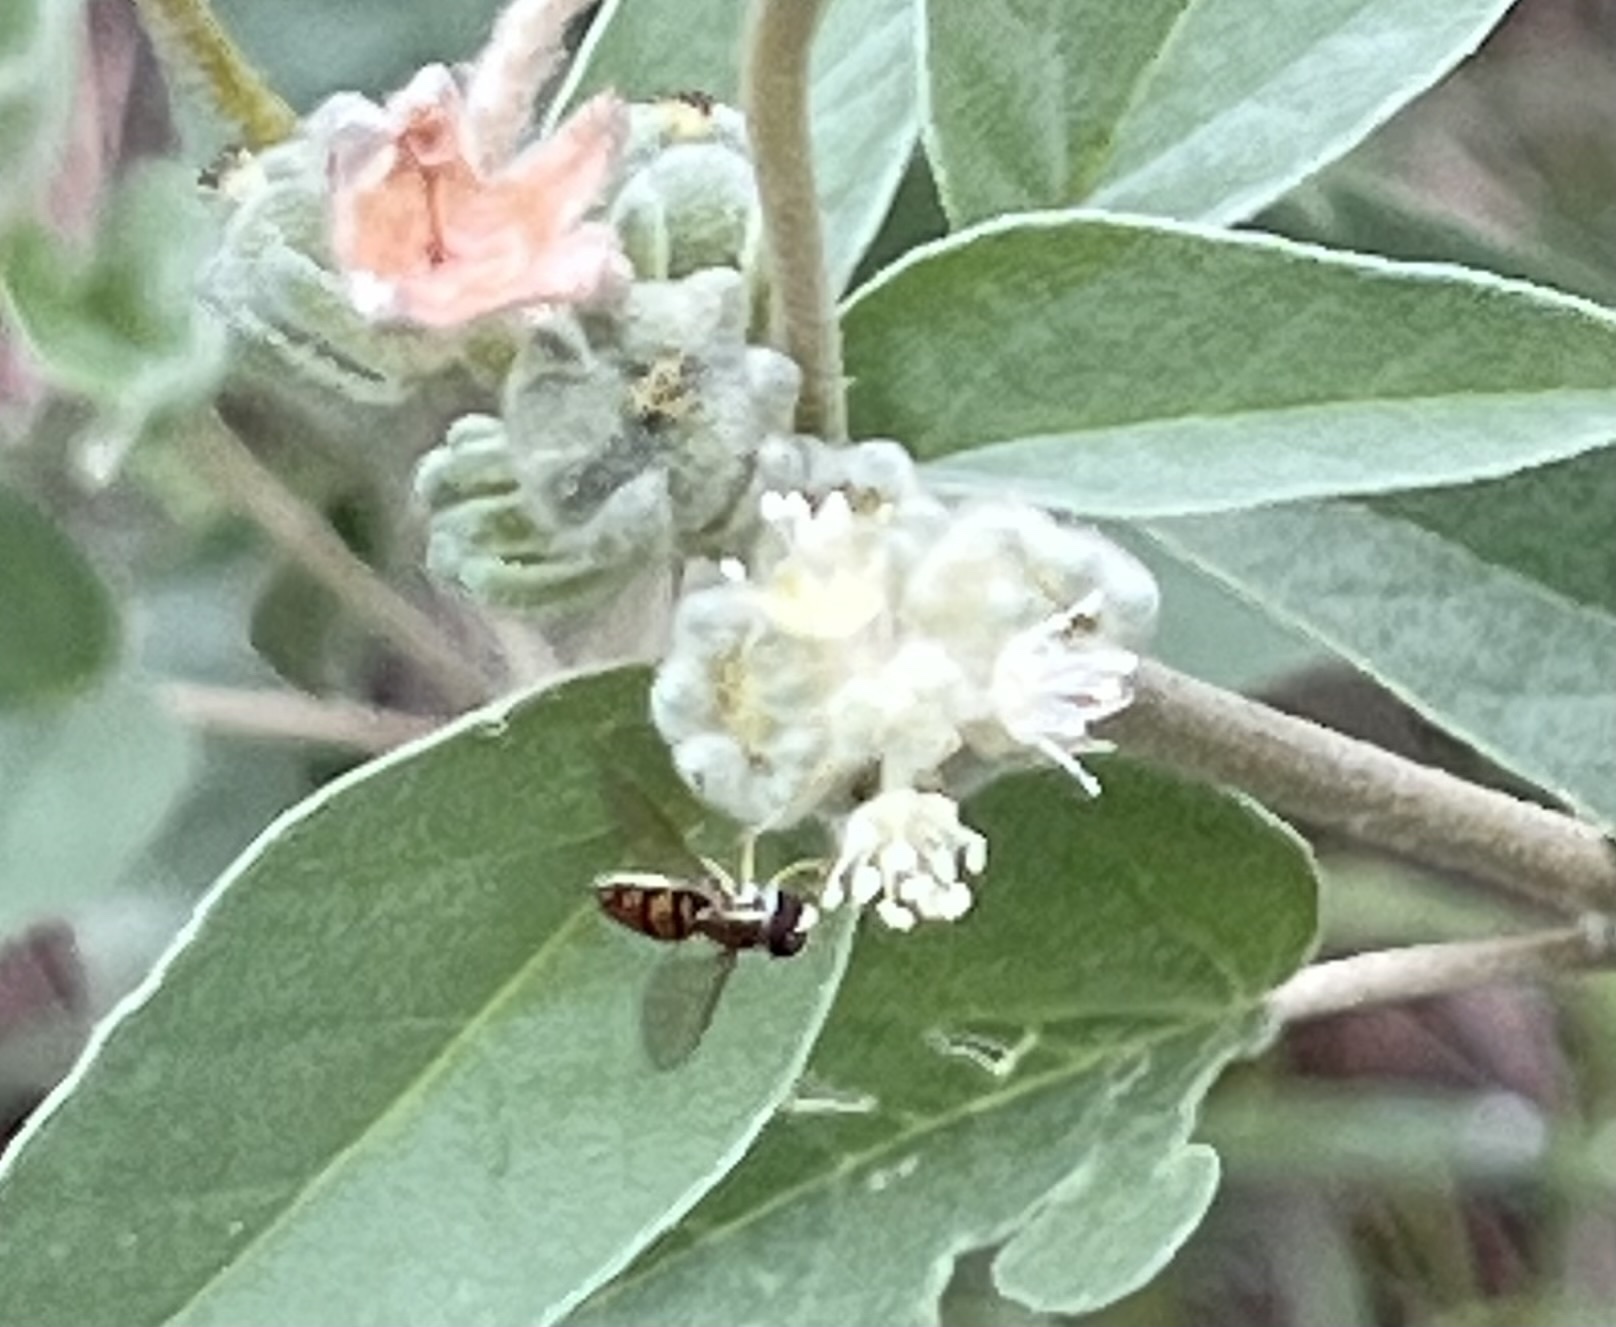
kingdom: Animalia
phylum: Arthropoda
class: Insecta
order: Diptera
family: Syrphidae
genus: Toxomerus
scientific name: Toxomerus marginatus
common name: Syrphid fly
